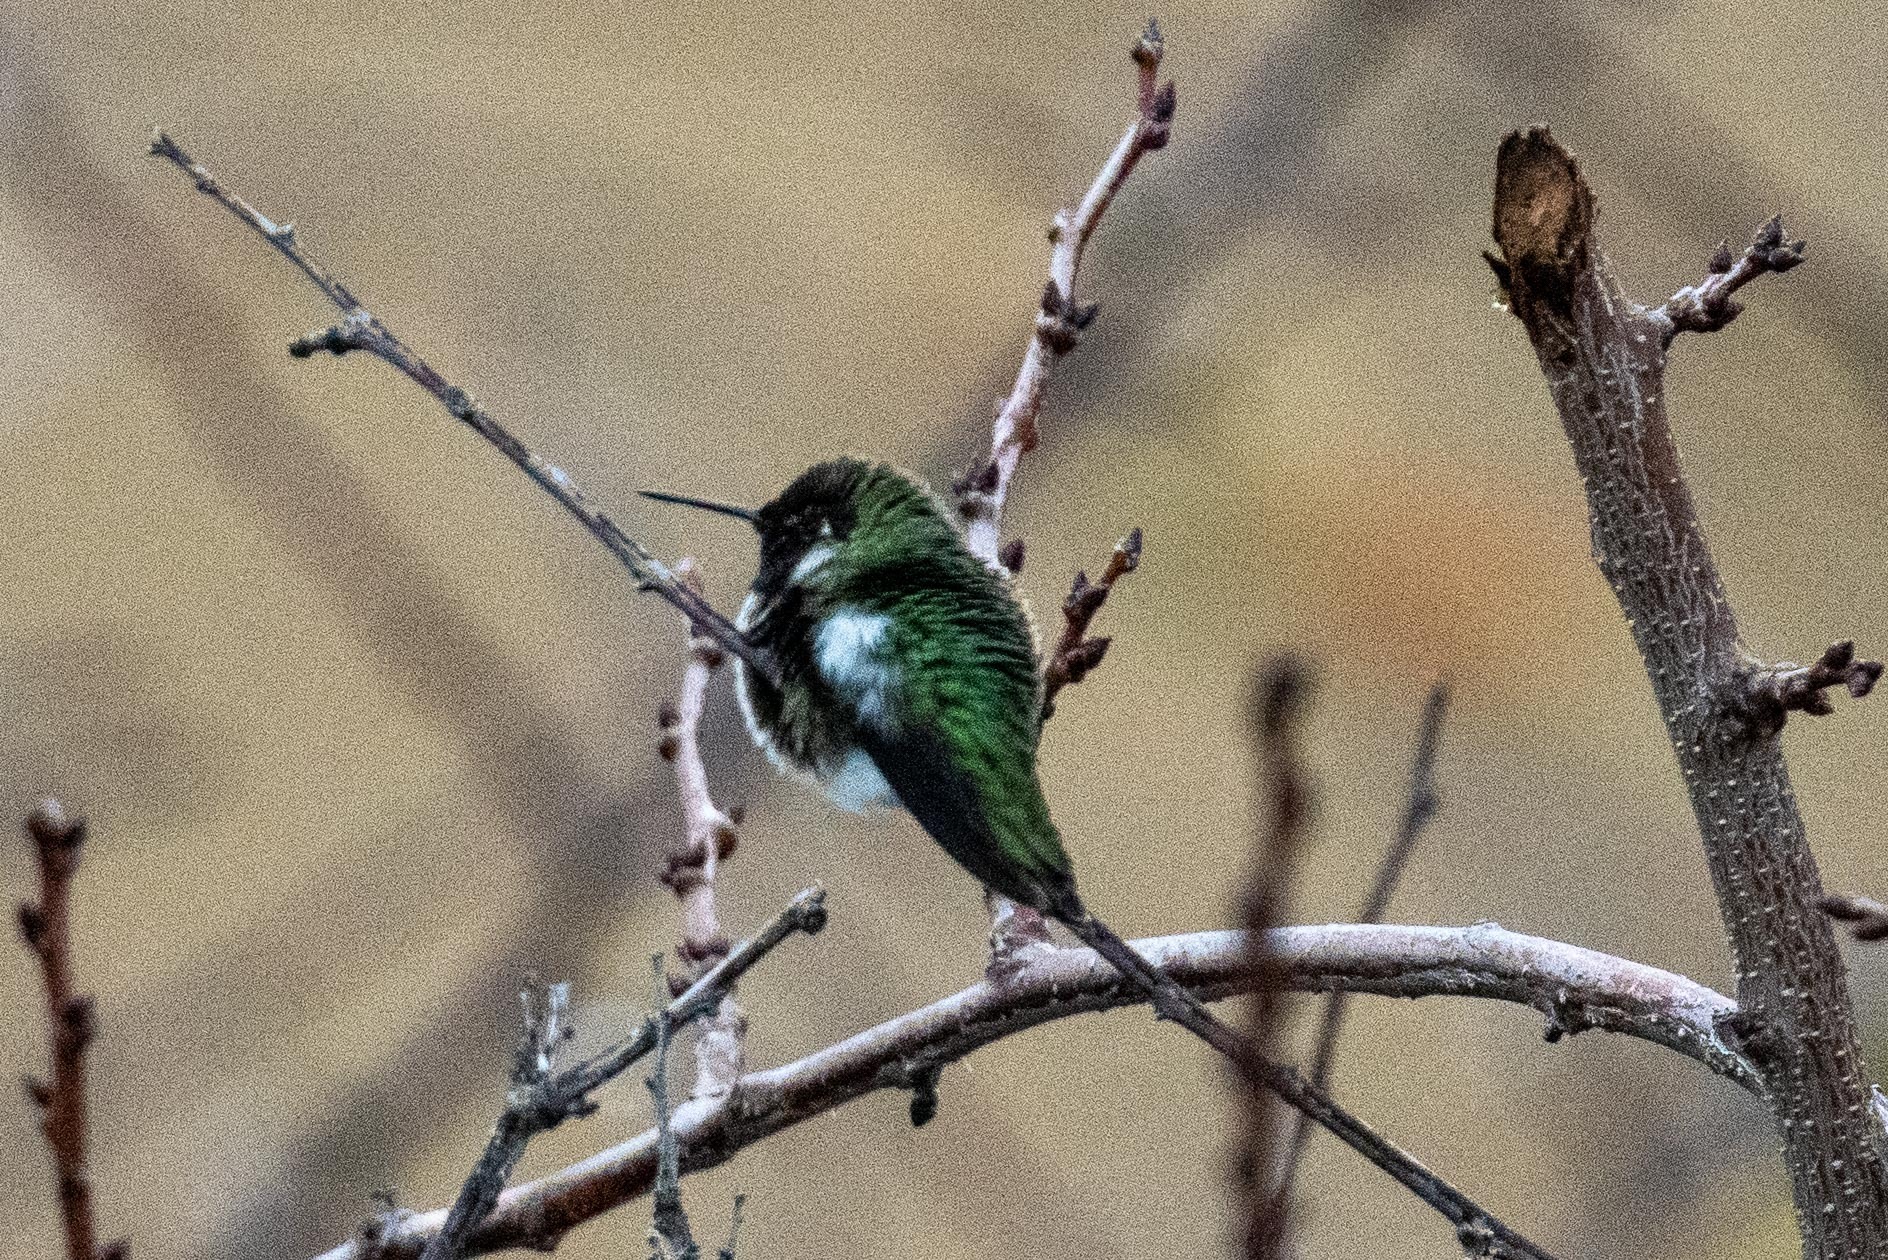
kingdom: Animalia
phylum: Chordata
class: Aves
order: Apodiformes
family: Trochilidae
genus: Calypte
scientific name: Calypte anna
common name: Anna's hummingbird
